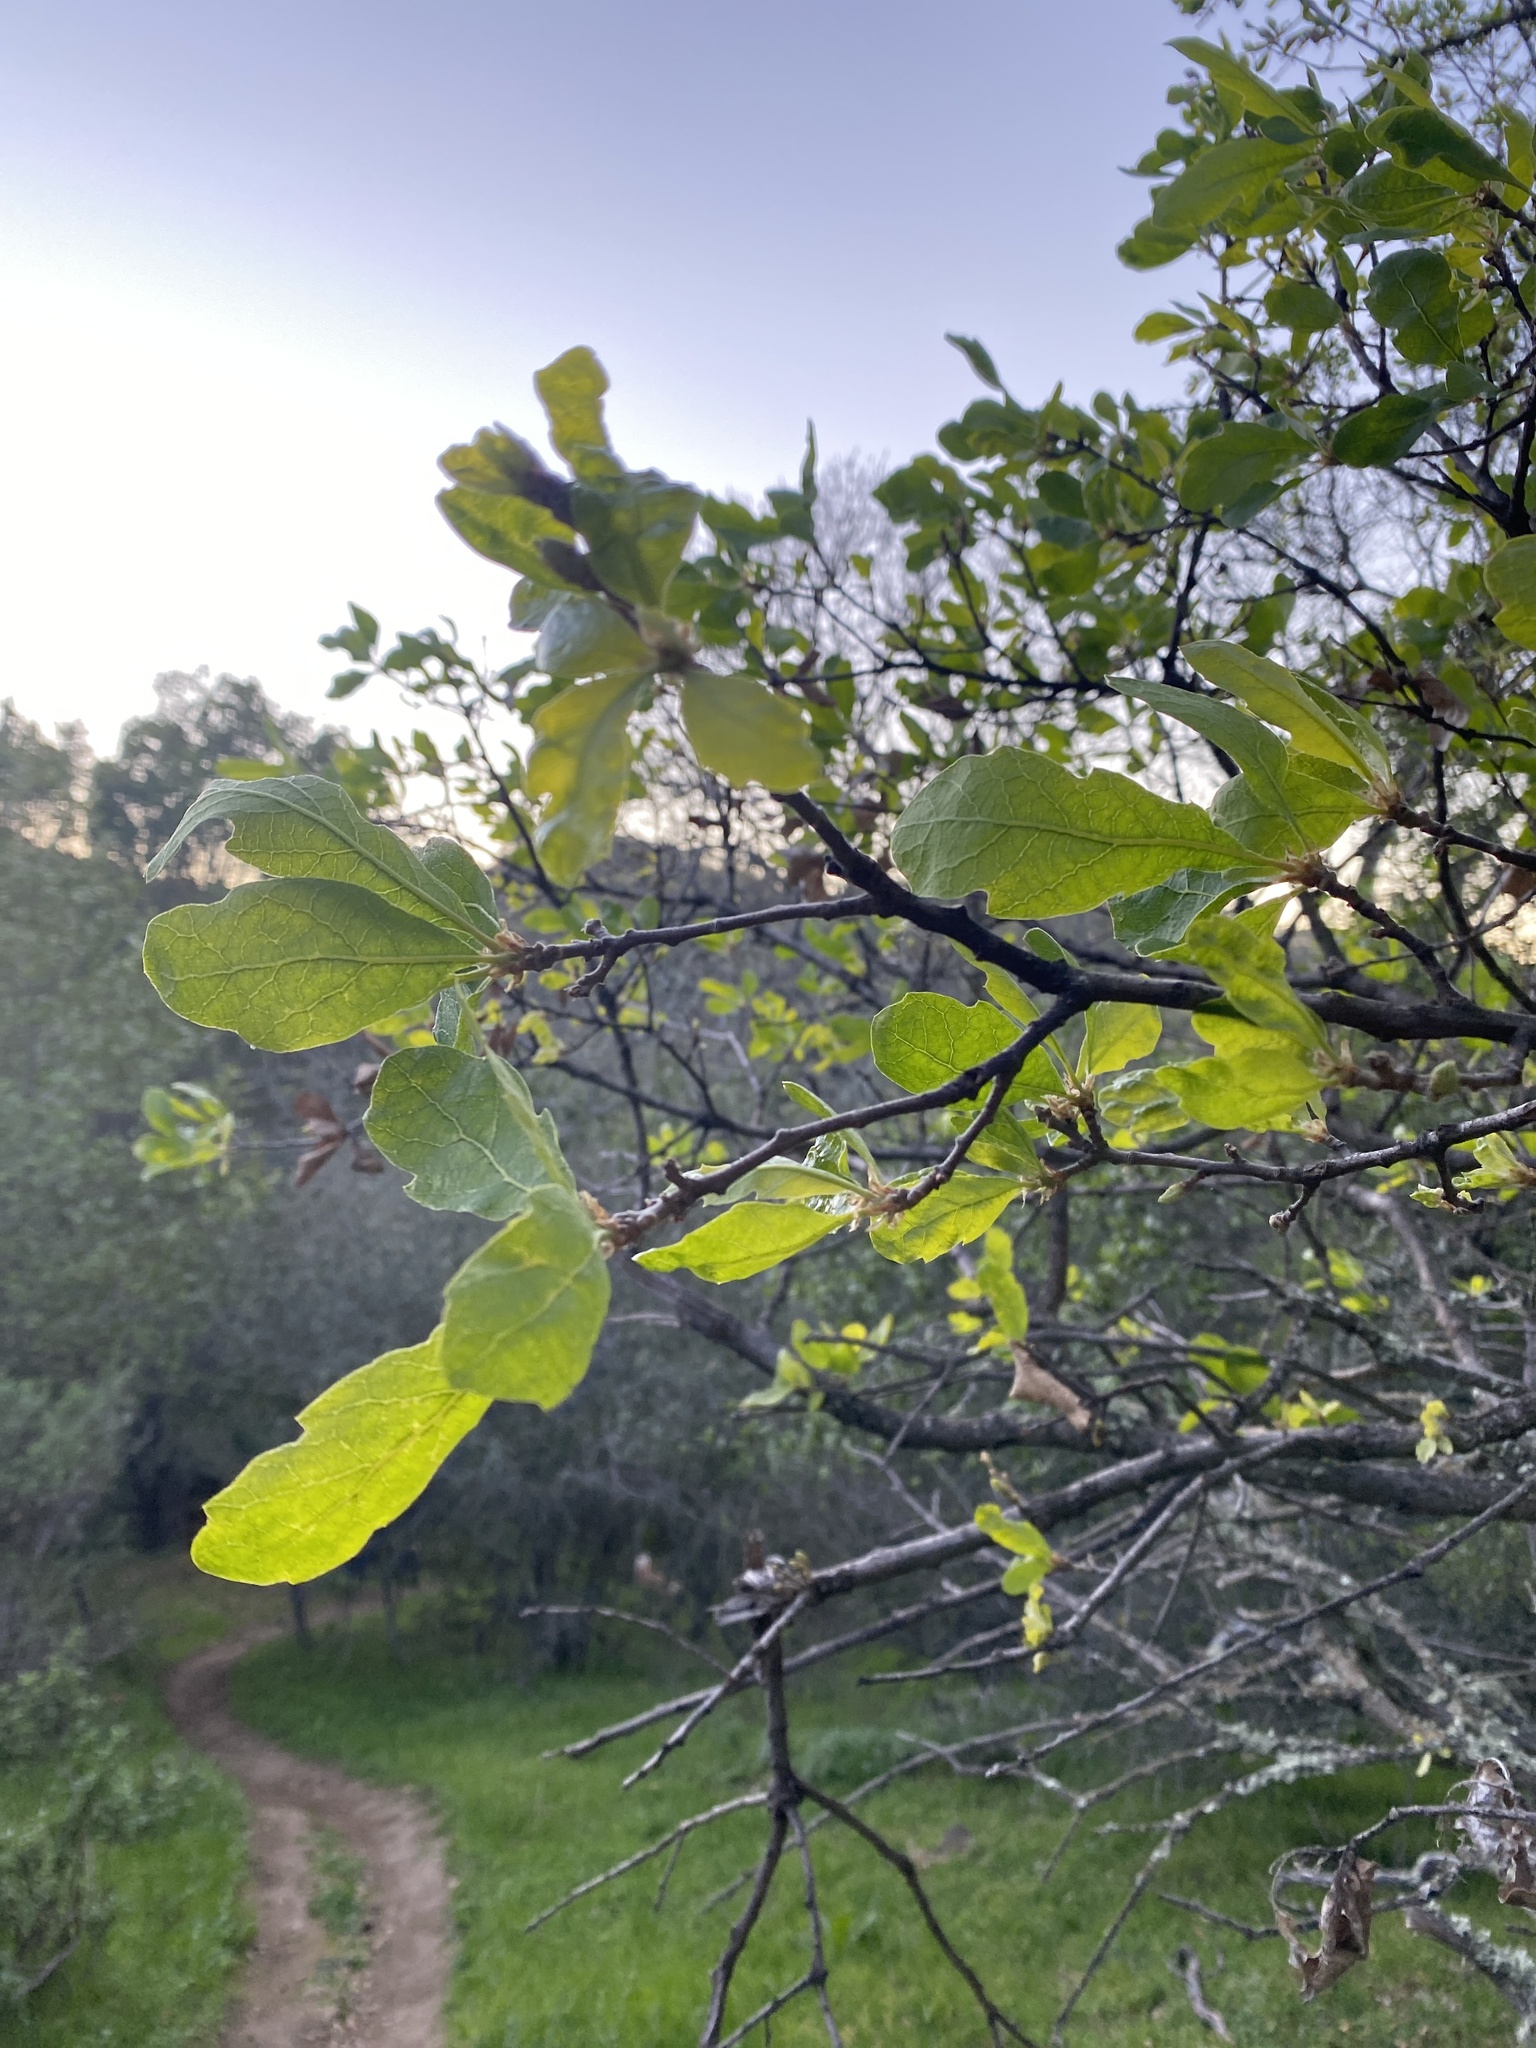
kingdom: Plantae
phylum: Tracheophyta
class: Magnoliopsida
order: Fagales
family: Fagaceae
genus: Quercus
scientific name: Quercus douglasii
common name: Blue oak
